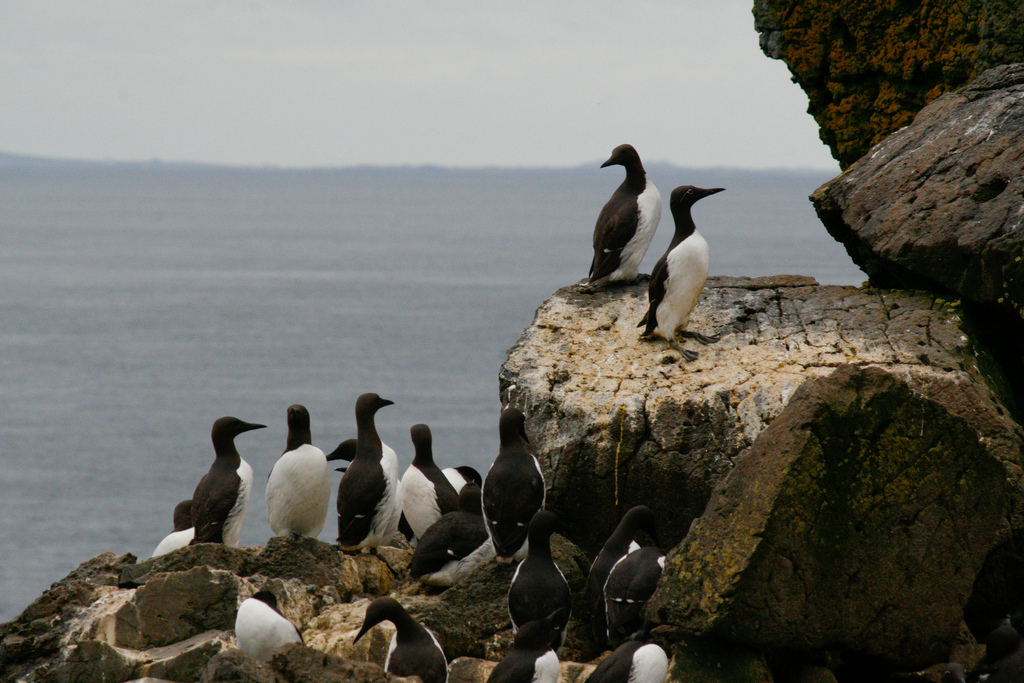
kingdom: Animalia
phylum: Chordata
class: Aves
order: Charadriiformes
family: Alcidae
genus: Uria
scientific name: Uria aalge
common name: Common murre
